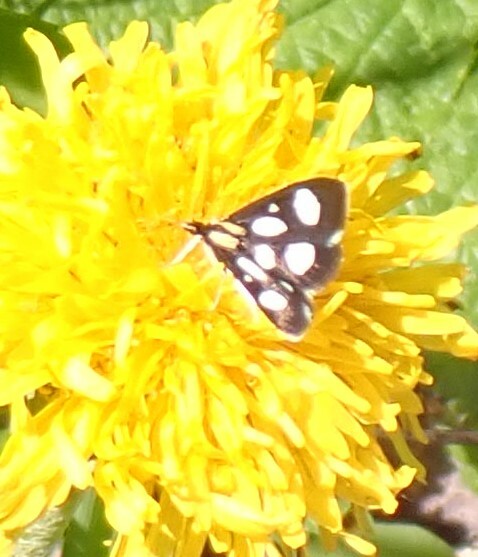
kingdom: Animalia
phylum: Arthropoda
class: Insecta
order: Lepidoptera
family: Crambidae
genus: Anania
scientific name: Anania funebris
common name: White-spotted sable moth
